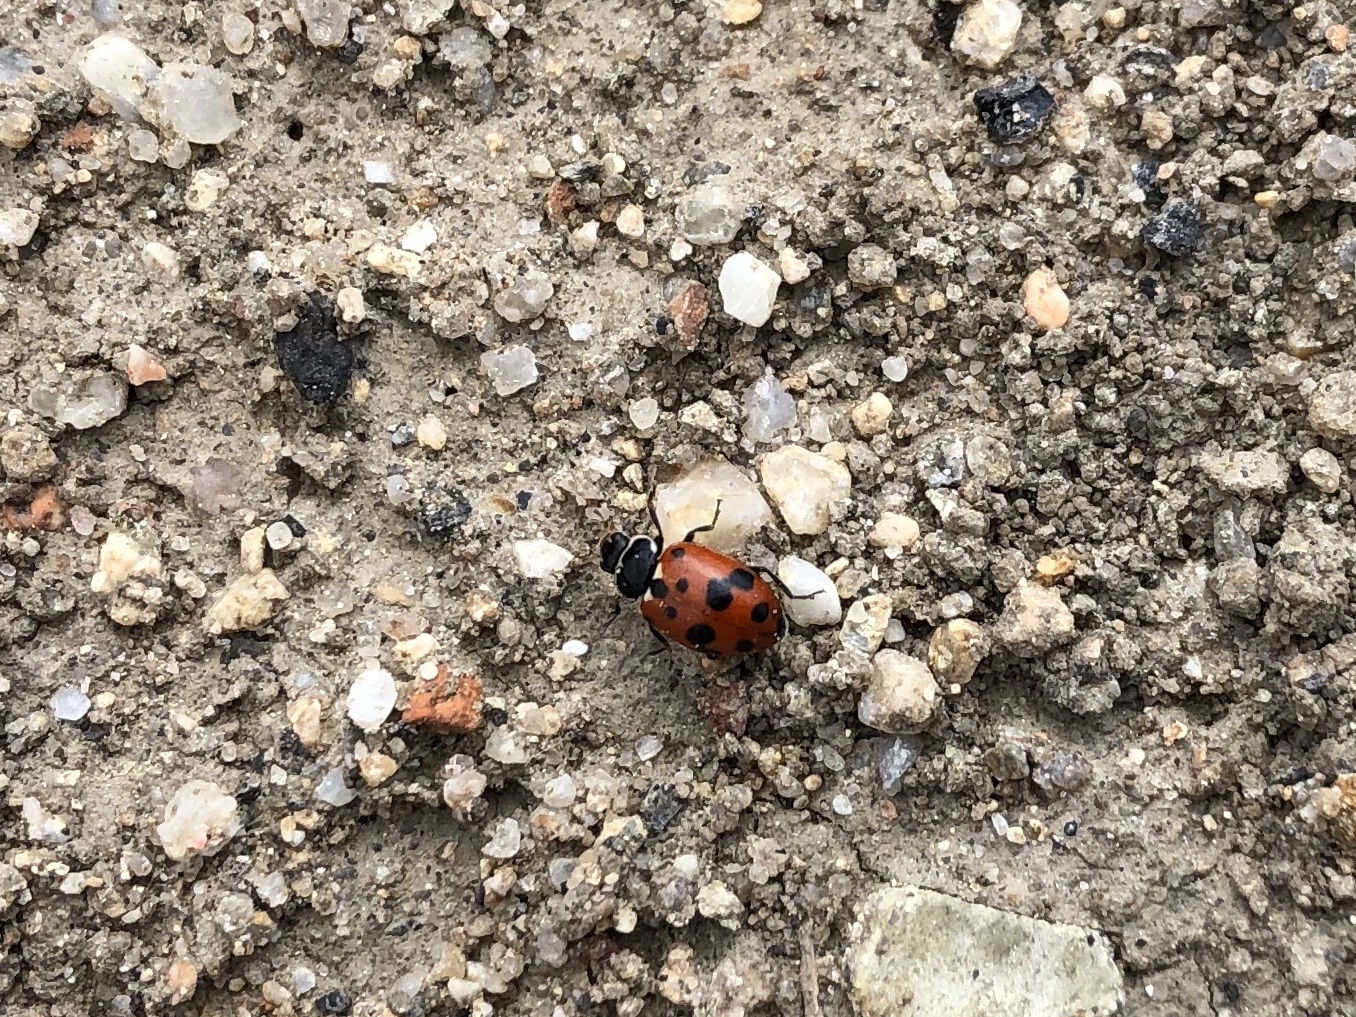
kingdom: Animalia
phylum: Arthropoda
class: Insecta
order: Coleoptera
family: Coccinellidae
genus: Hippodamia
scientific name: Hippodamia variegata
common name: Ladybird beetle
